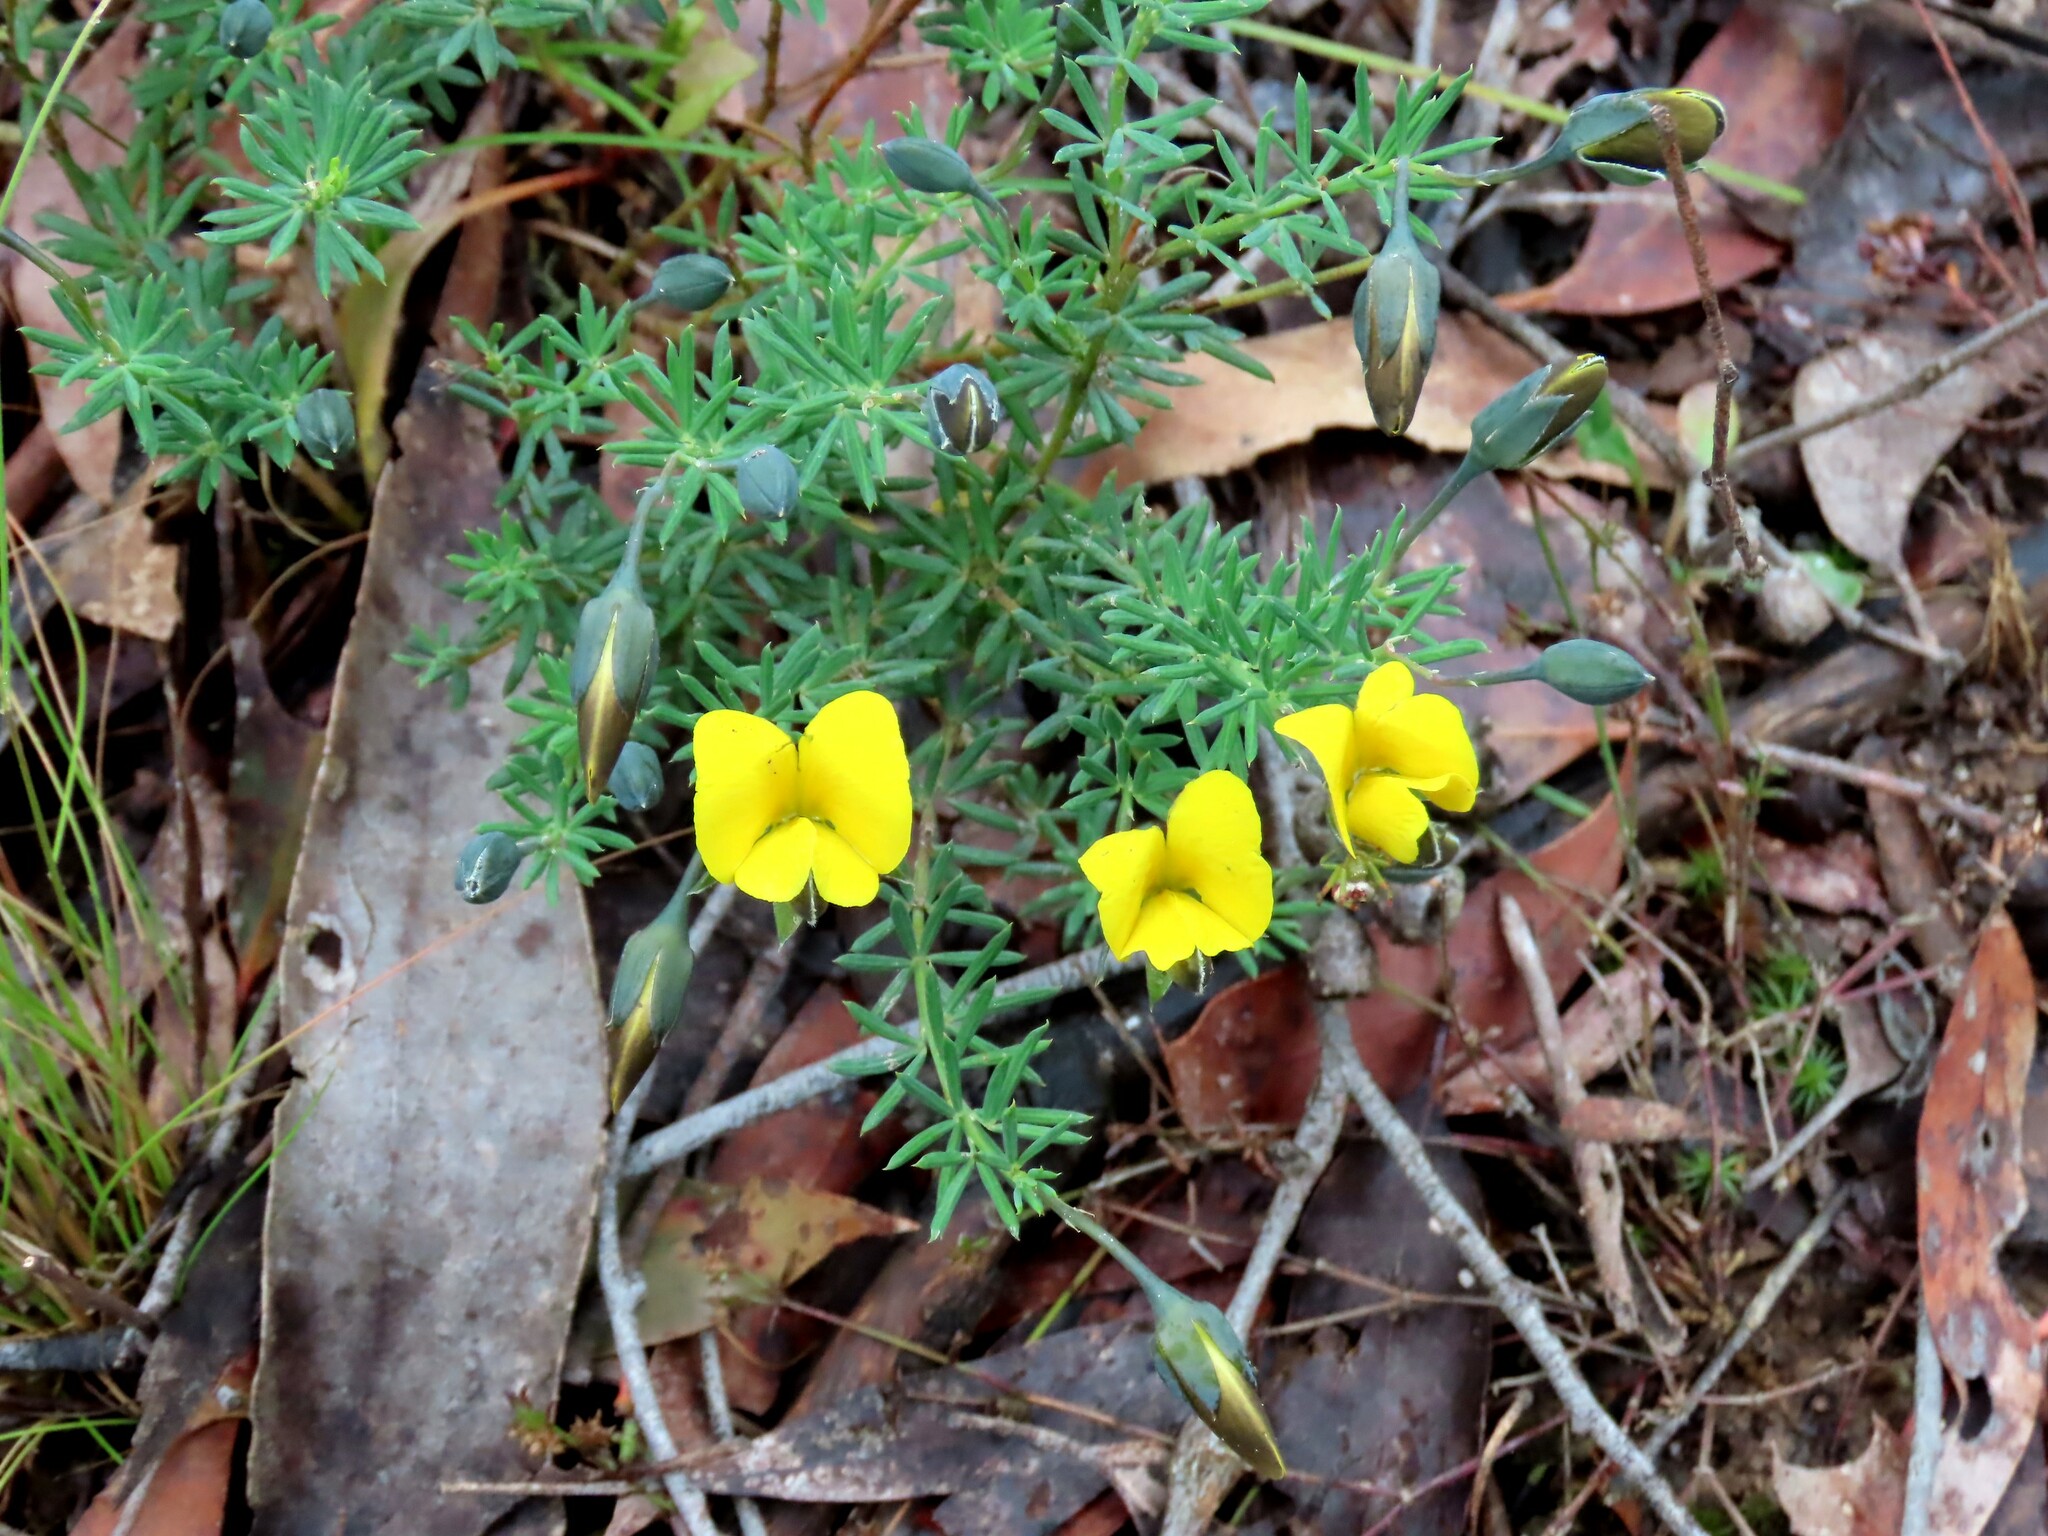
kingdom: Plantae
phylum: Tracheophyta
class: Magnoliopsida
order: Fabales
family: Fabaceae
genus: Gompholobium
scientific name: Gompholobium huegelii
